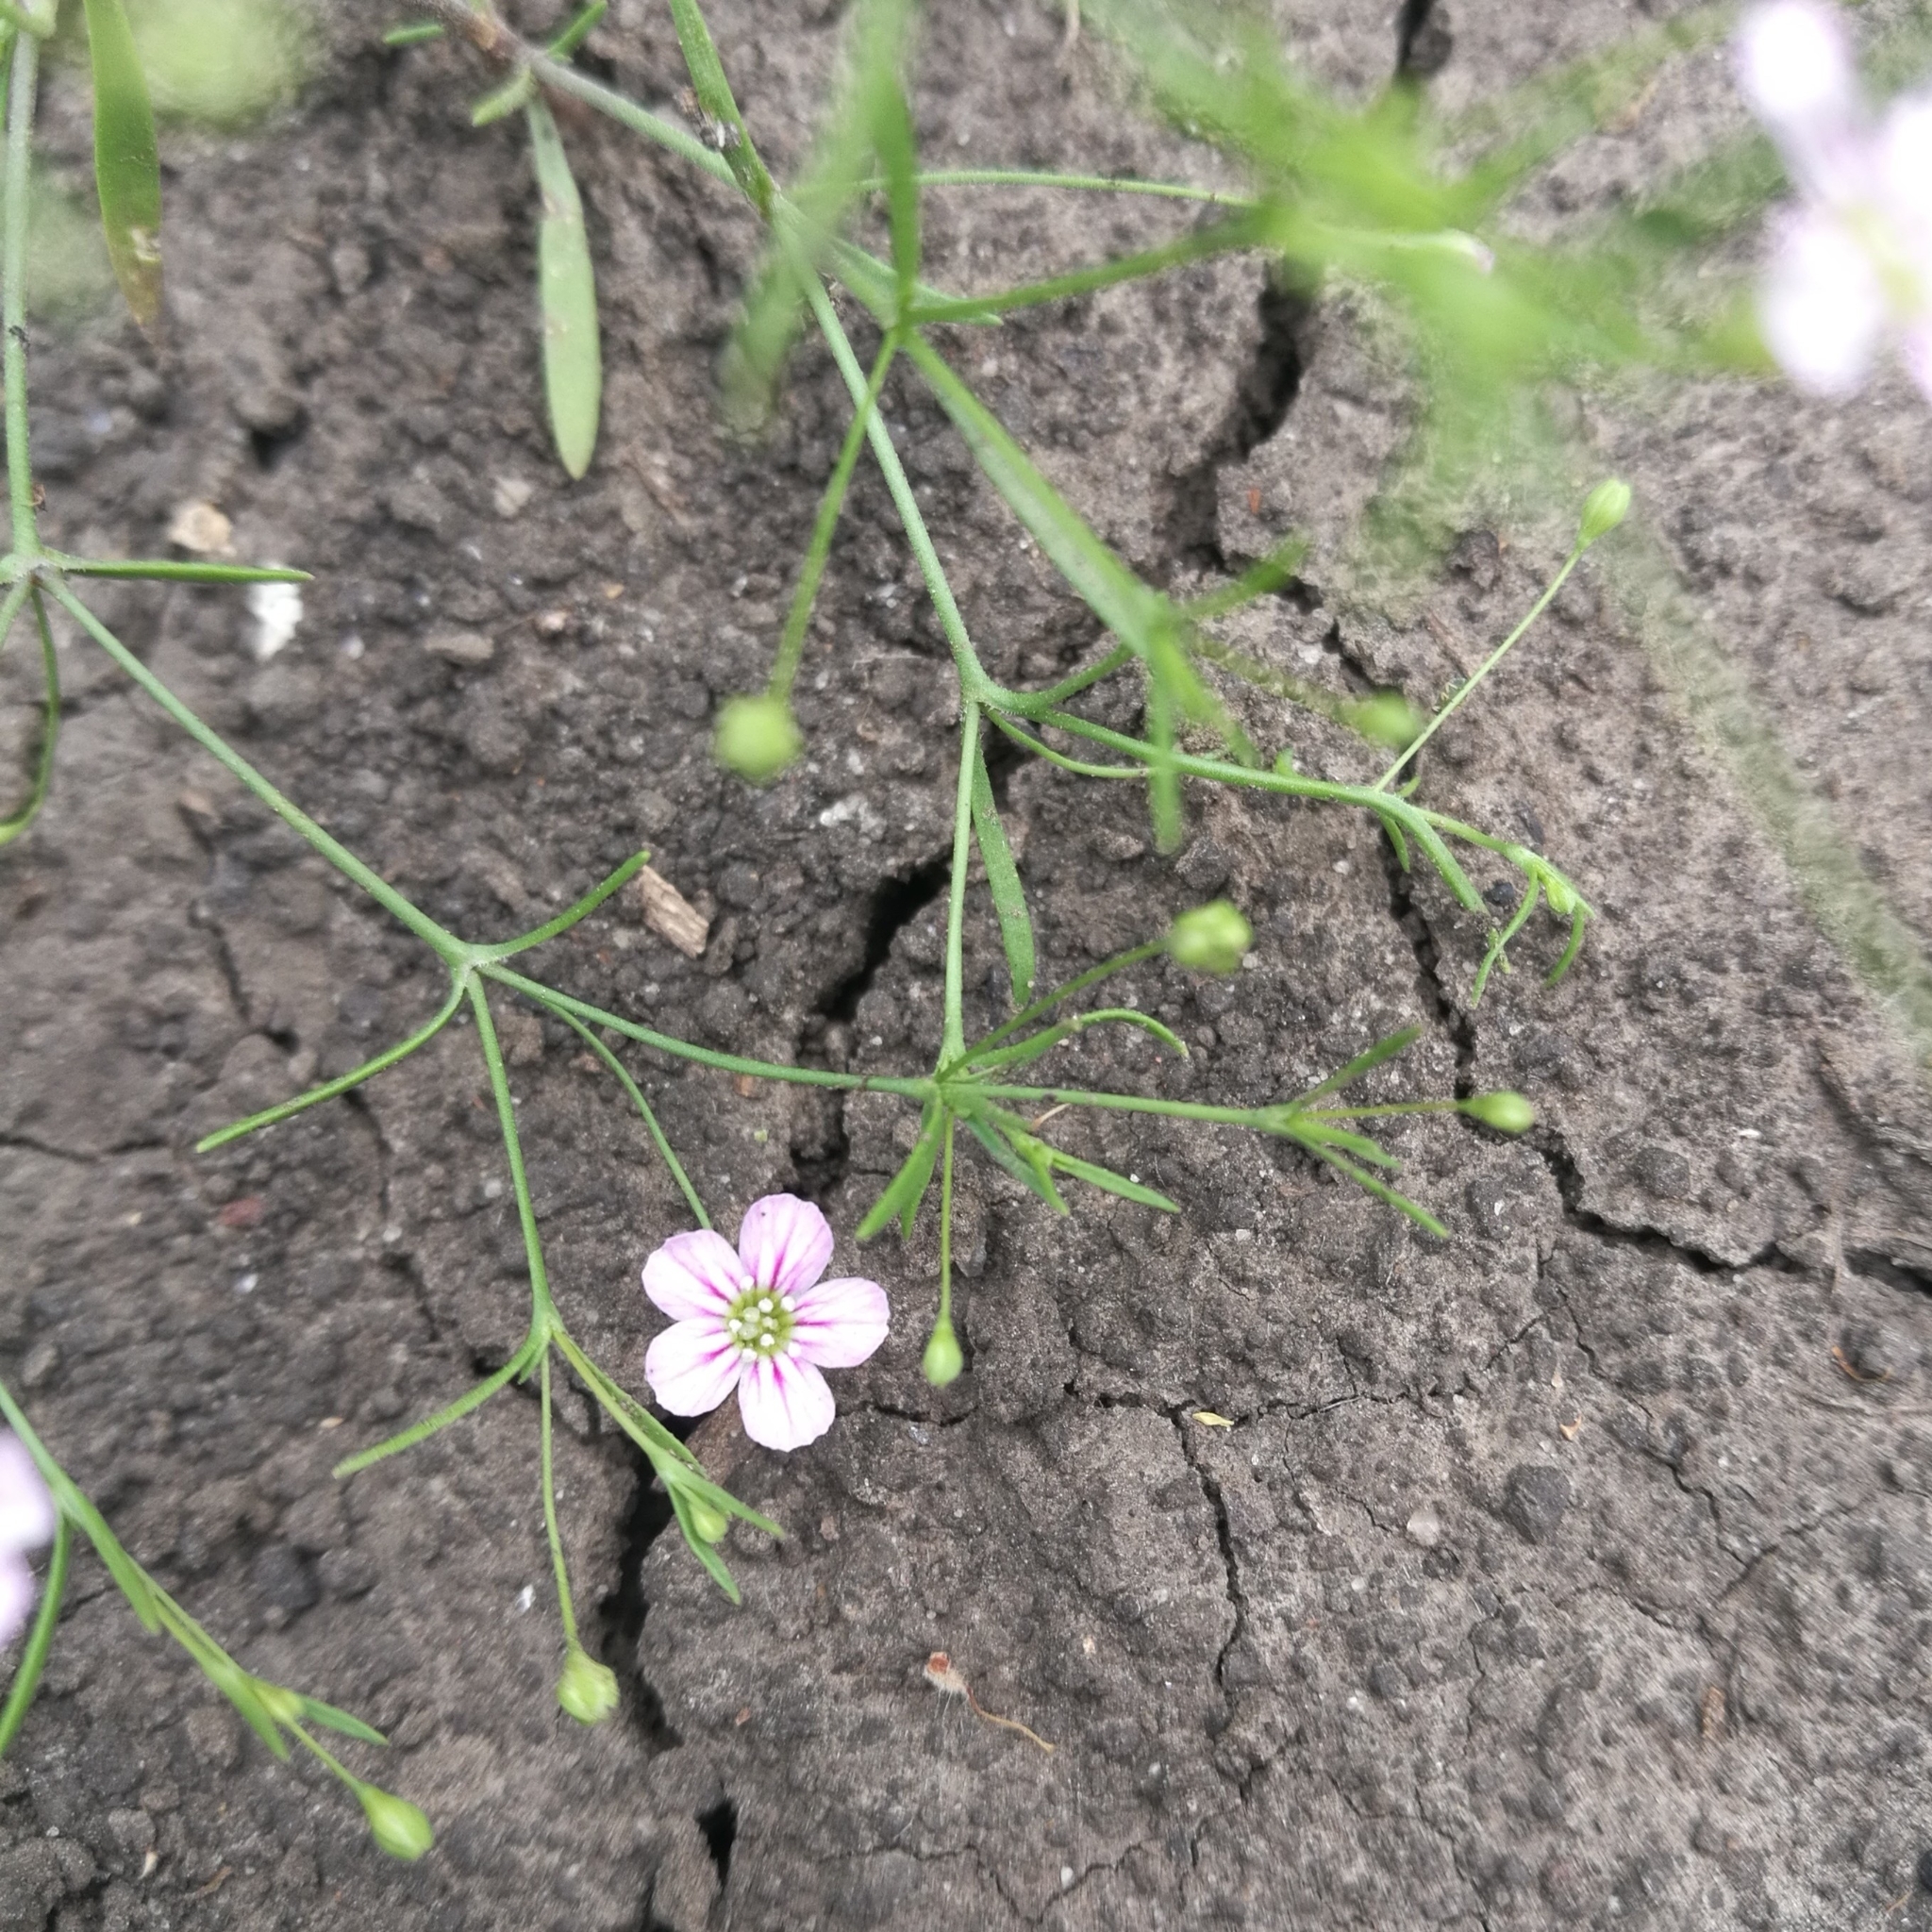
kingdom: Plantae
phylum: Tracheophyta
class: Magnoliopsida
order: Caryophyllales
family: Caryophyllaceae
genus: Psammophiliella
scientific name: Psammophiliella muralis
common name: Cushion baby's-breath
